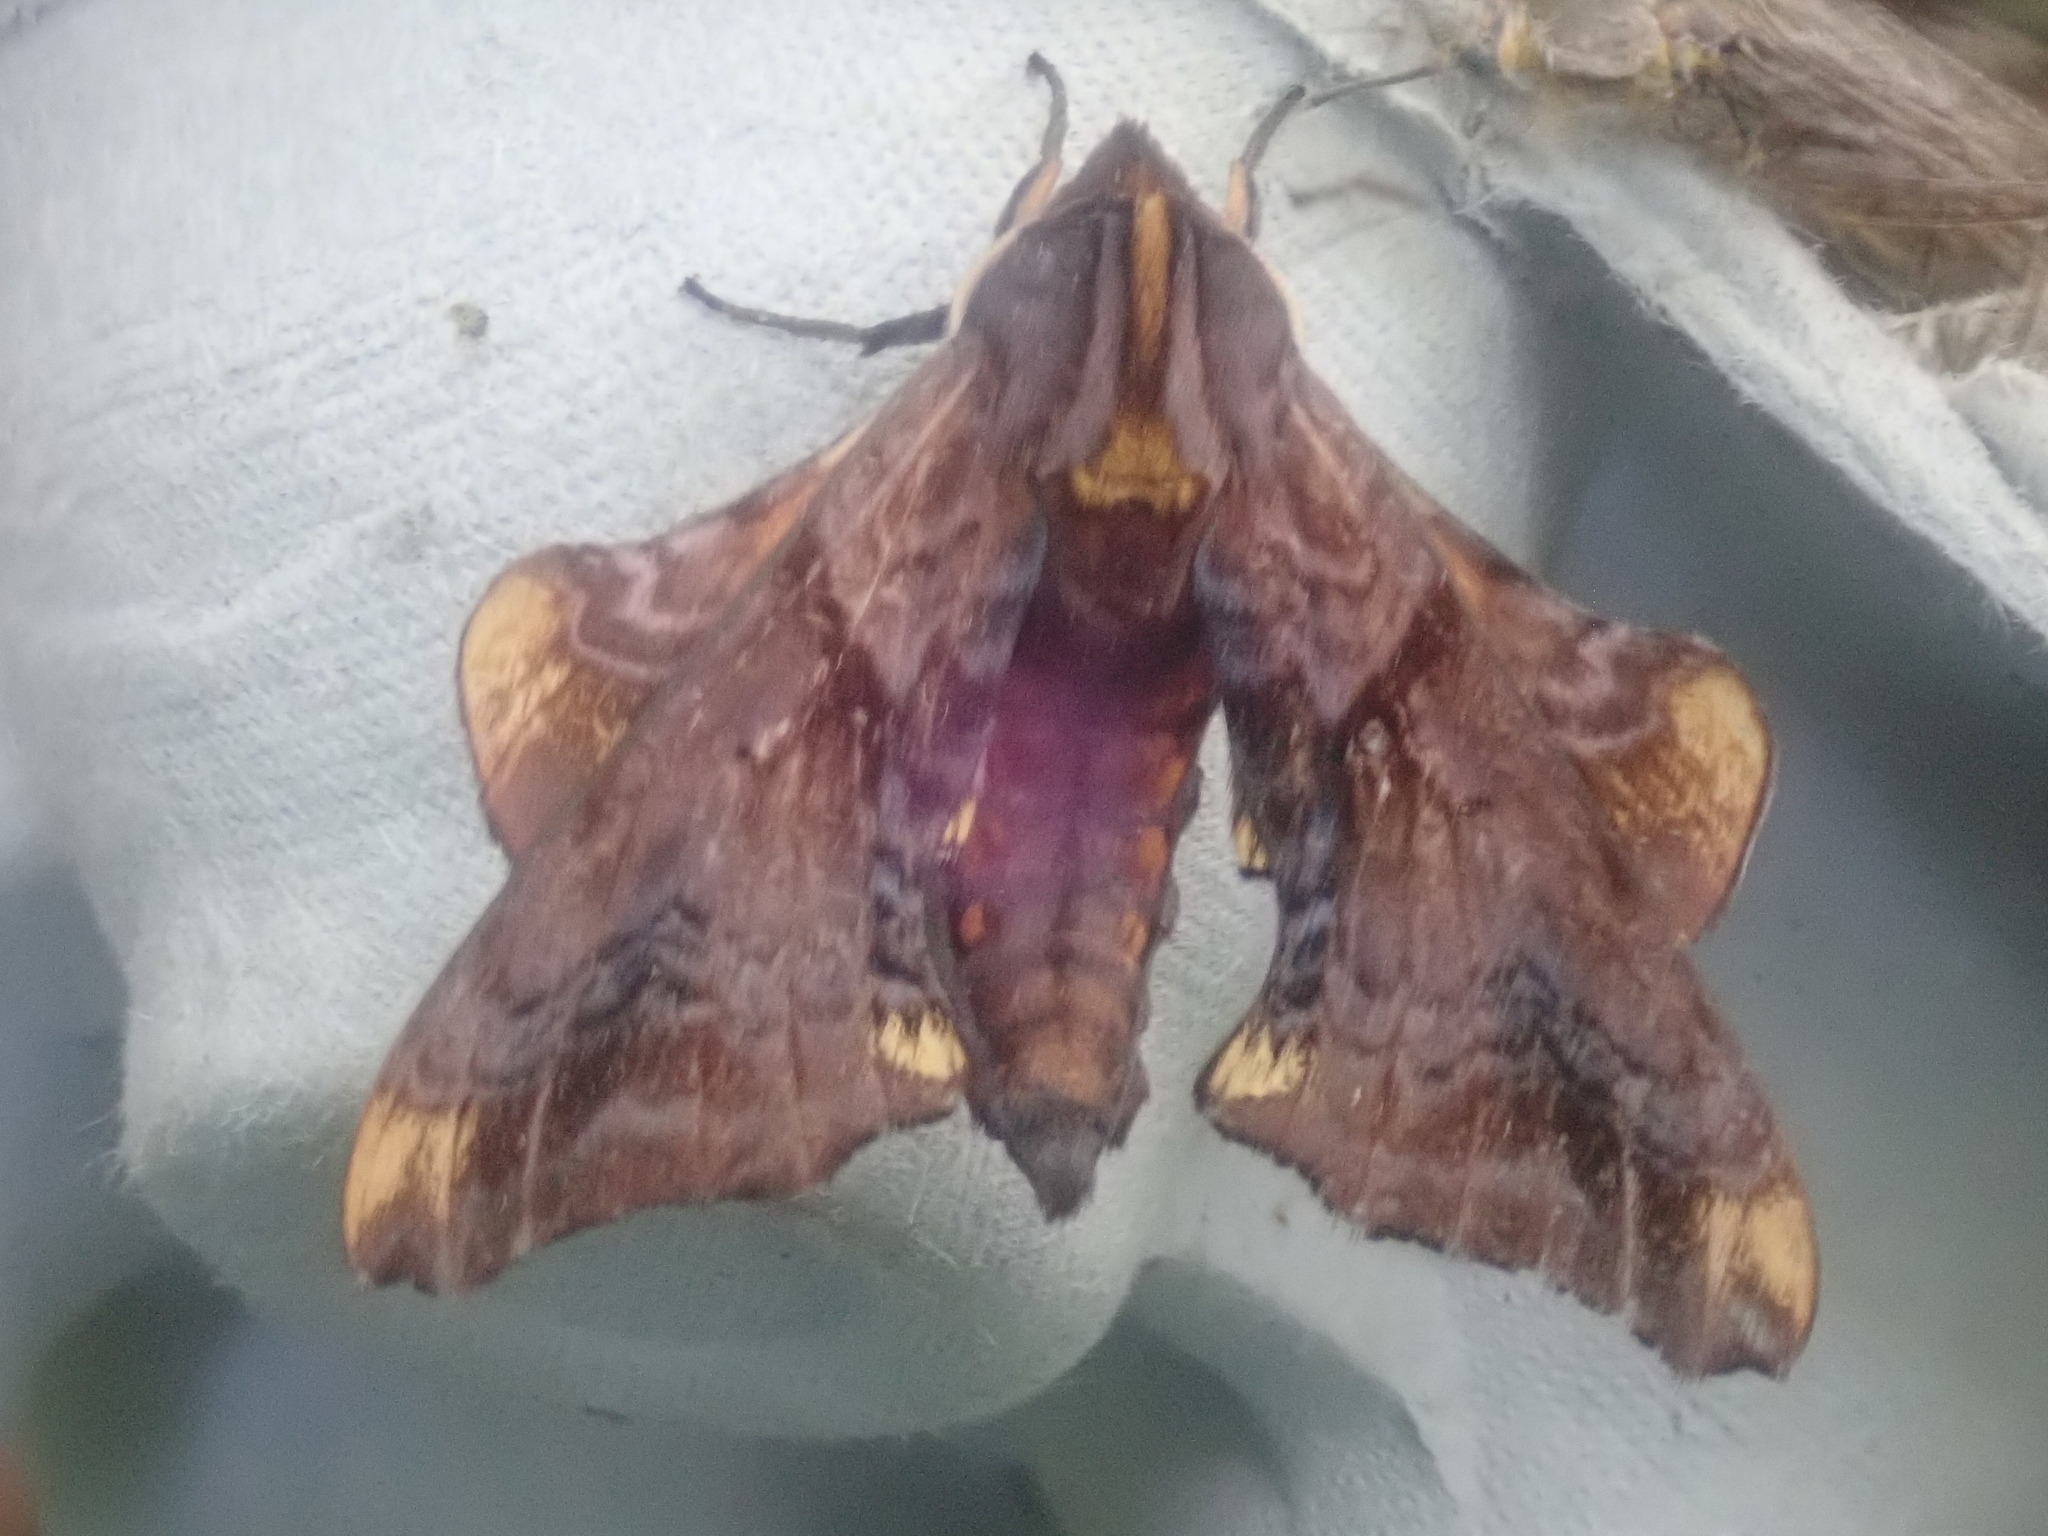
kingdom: Animalia
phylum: Arthropoda
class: Insecta
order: Lepidoptera
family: Sphingidae
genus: Paonias
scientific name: Paonias myops
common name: Small-eyed sphinx
